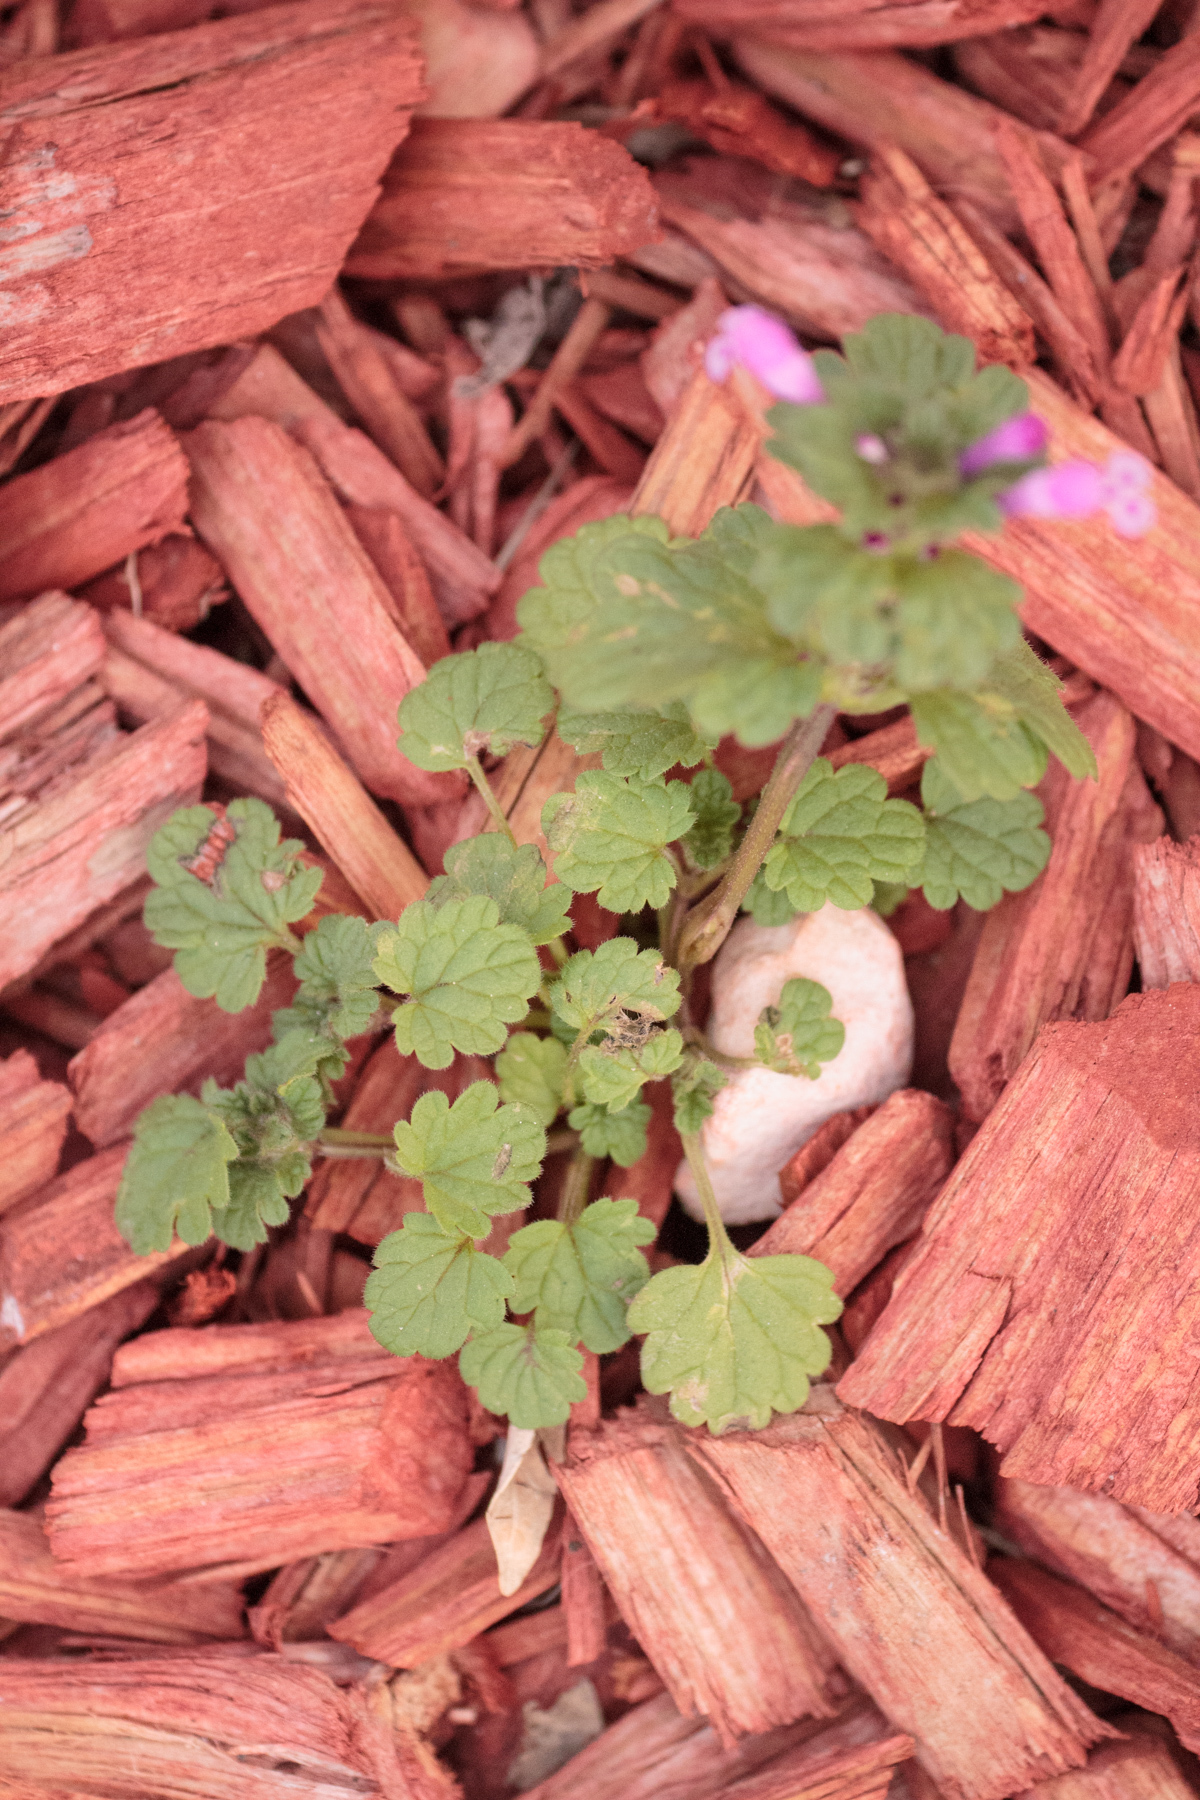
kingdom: Plantae
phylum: Tracheophyta
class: Magnoliopsida
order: Lamiales
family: Lamiaceae
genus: Lamium
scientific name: Lamium amplexicaule
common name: Henbit dead-nettle
